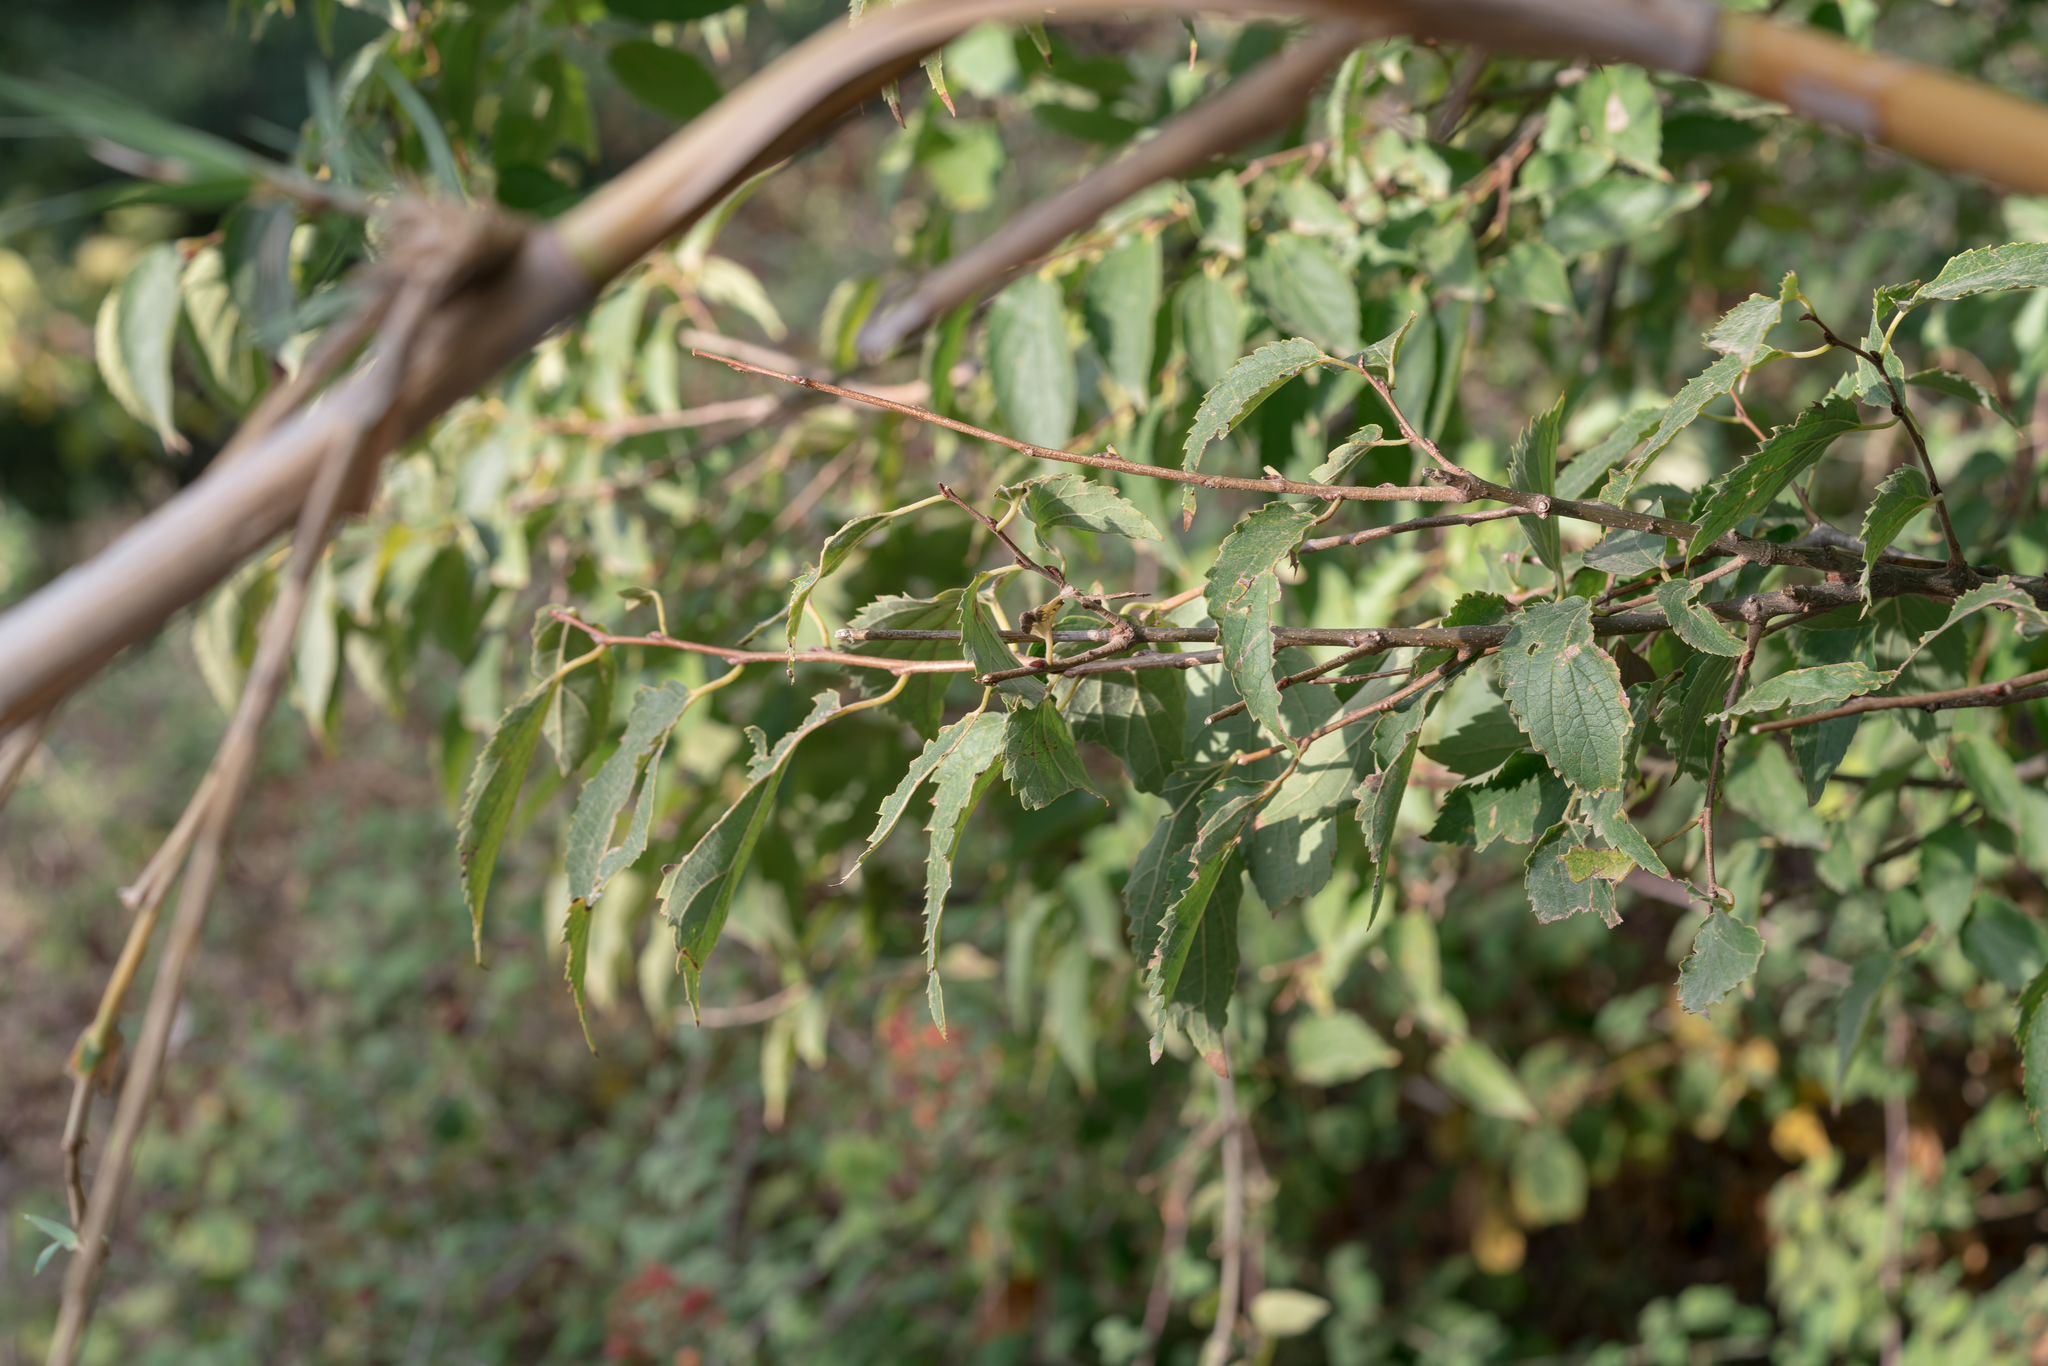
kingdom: Plantae
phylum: Tracheophyta
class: Magnoliopsida
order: Rosales
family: Cannabaceae
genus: Celtis
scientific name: Celtis australis
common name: European hackberry
